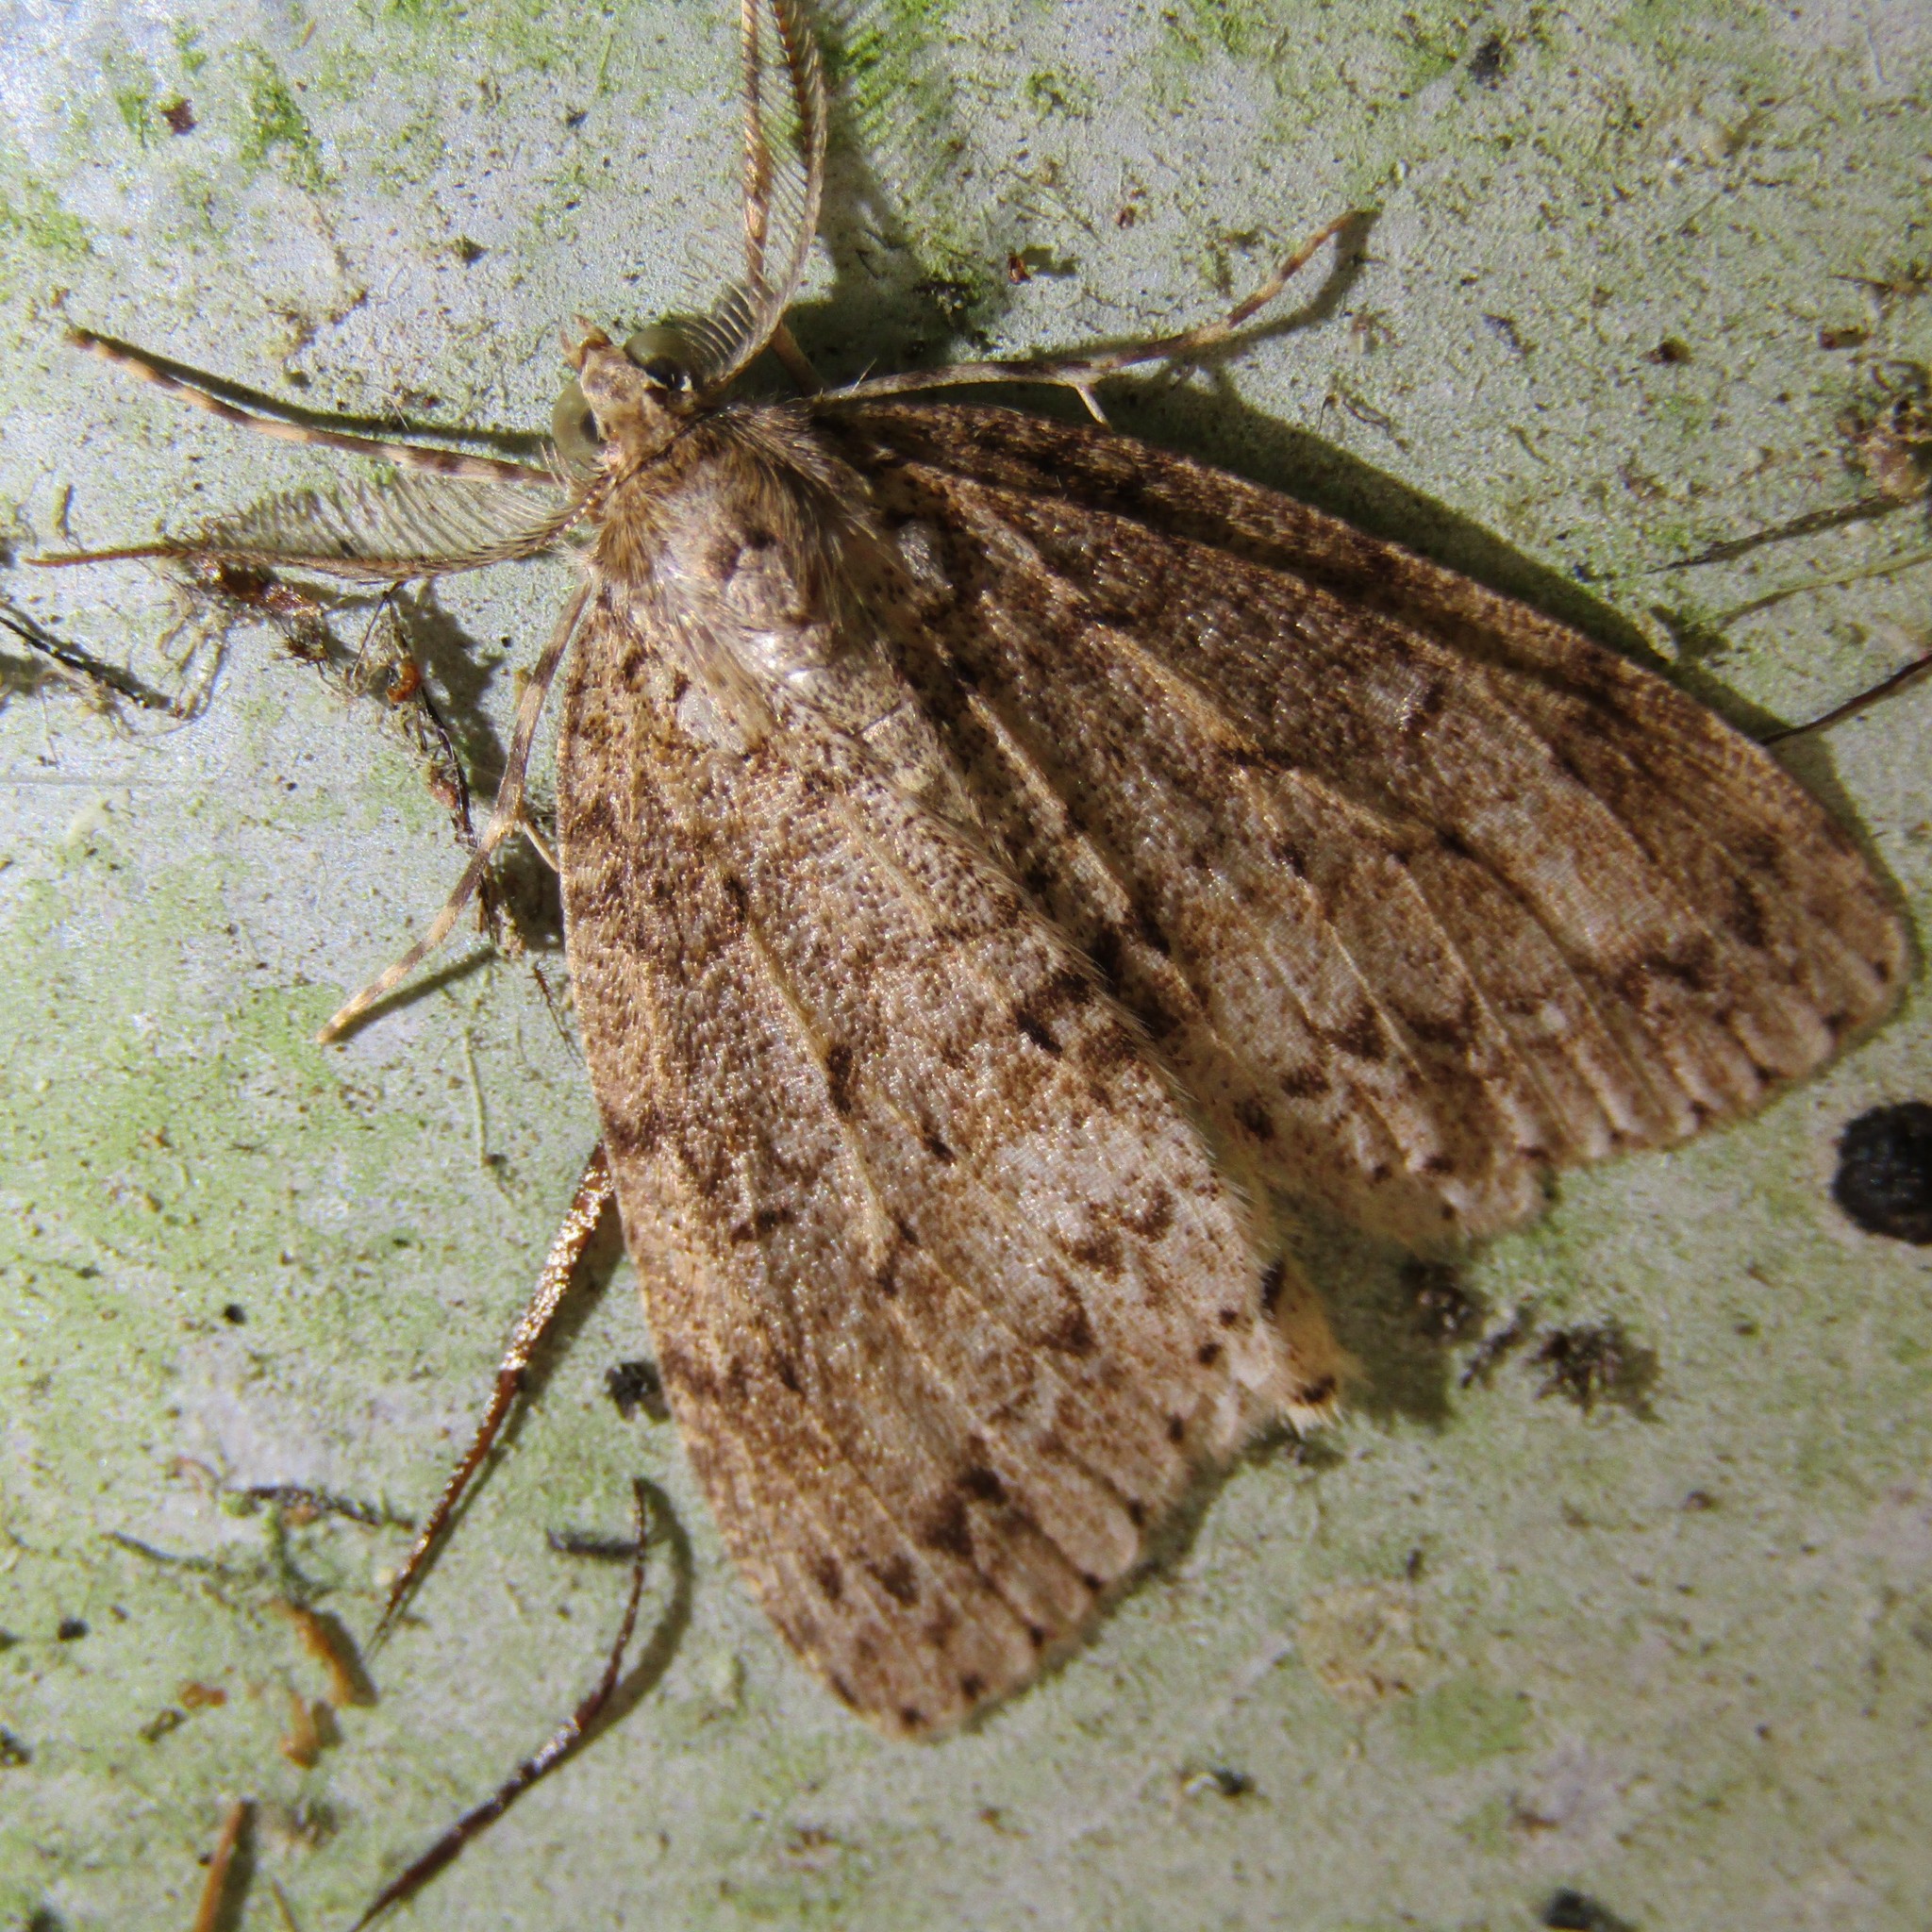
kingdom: Animalia
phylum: Arthropoda
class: Insecta
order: Lepidoptera
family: Geometridae
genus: Pseudocoremia
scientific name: Pseudocoremia fenerata
